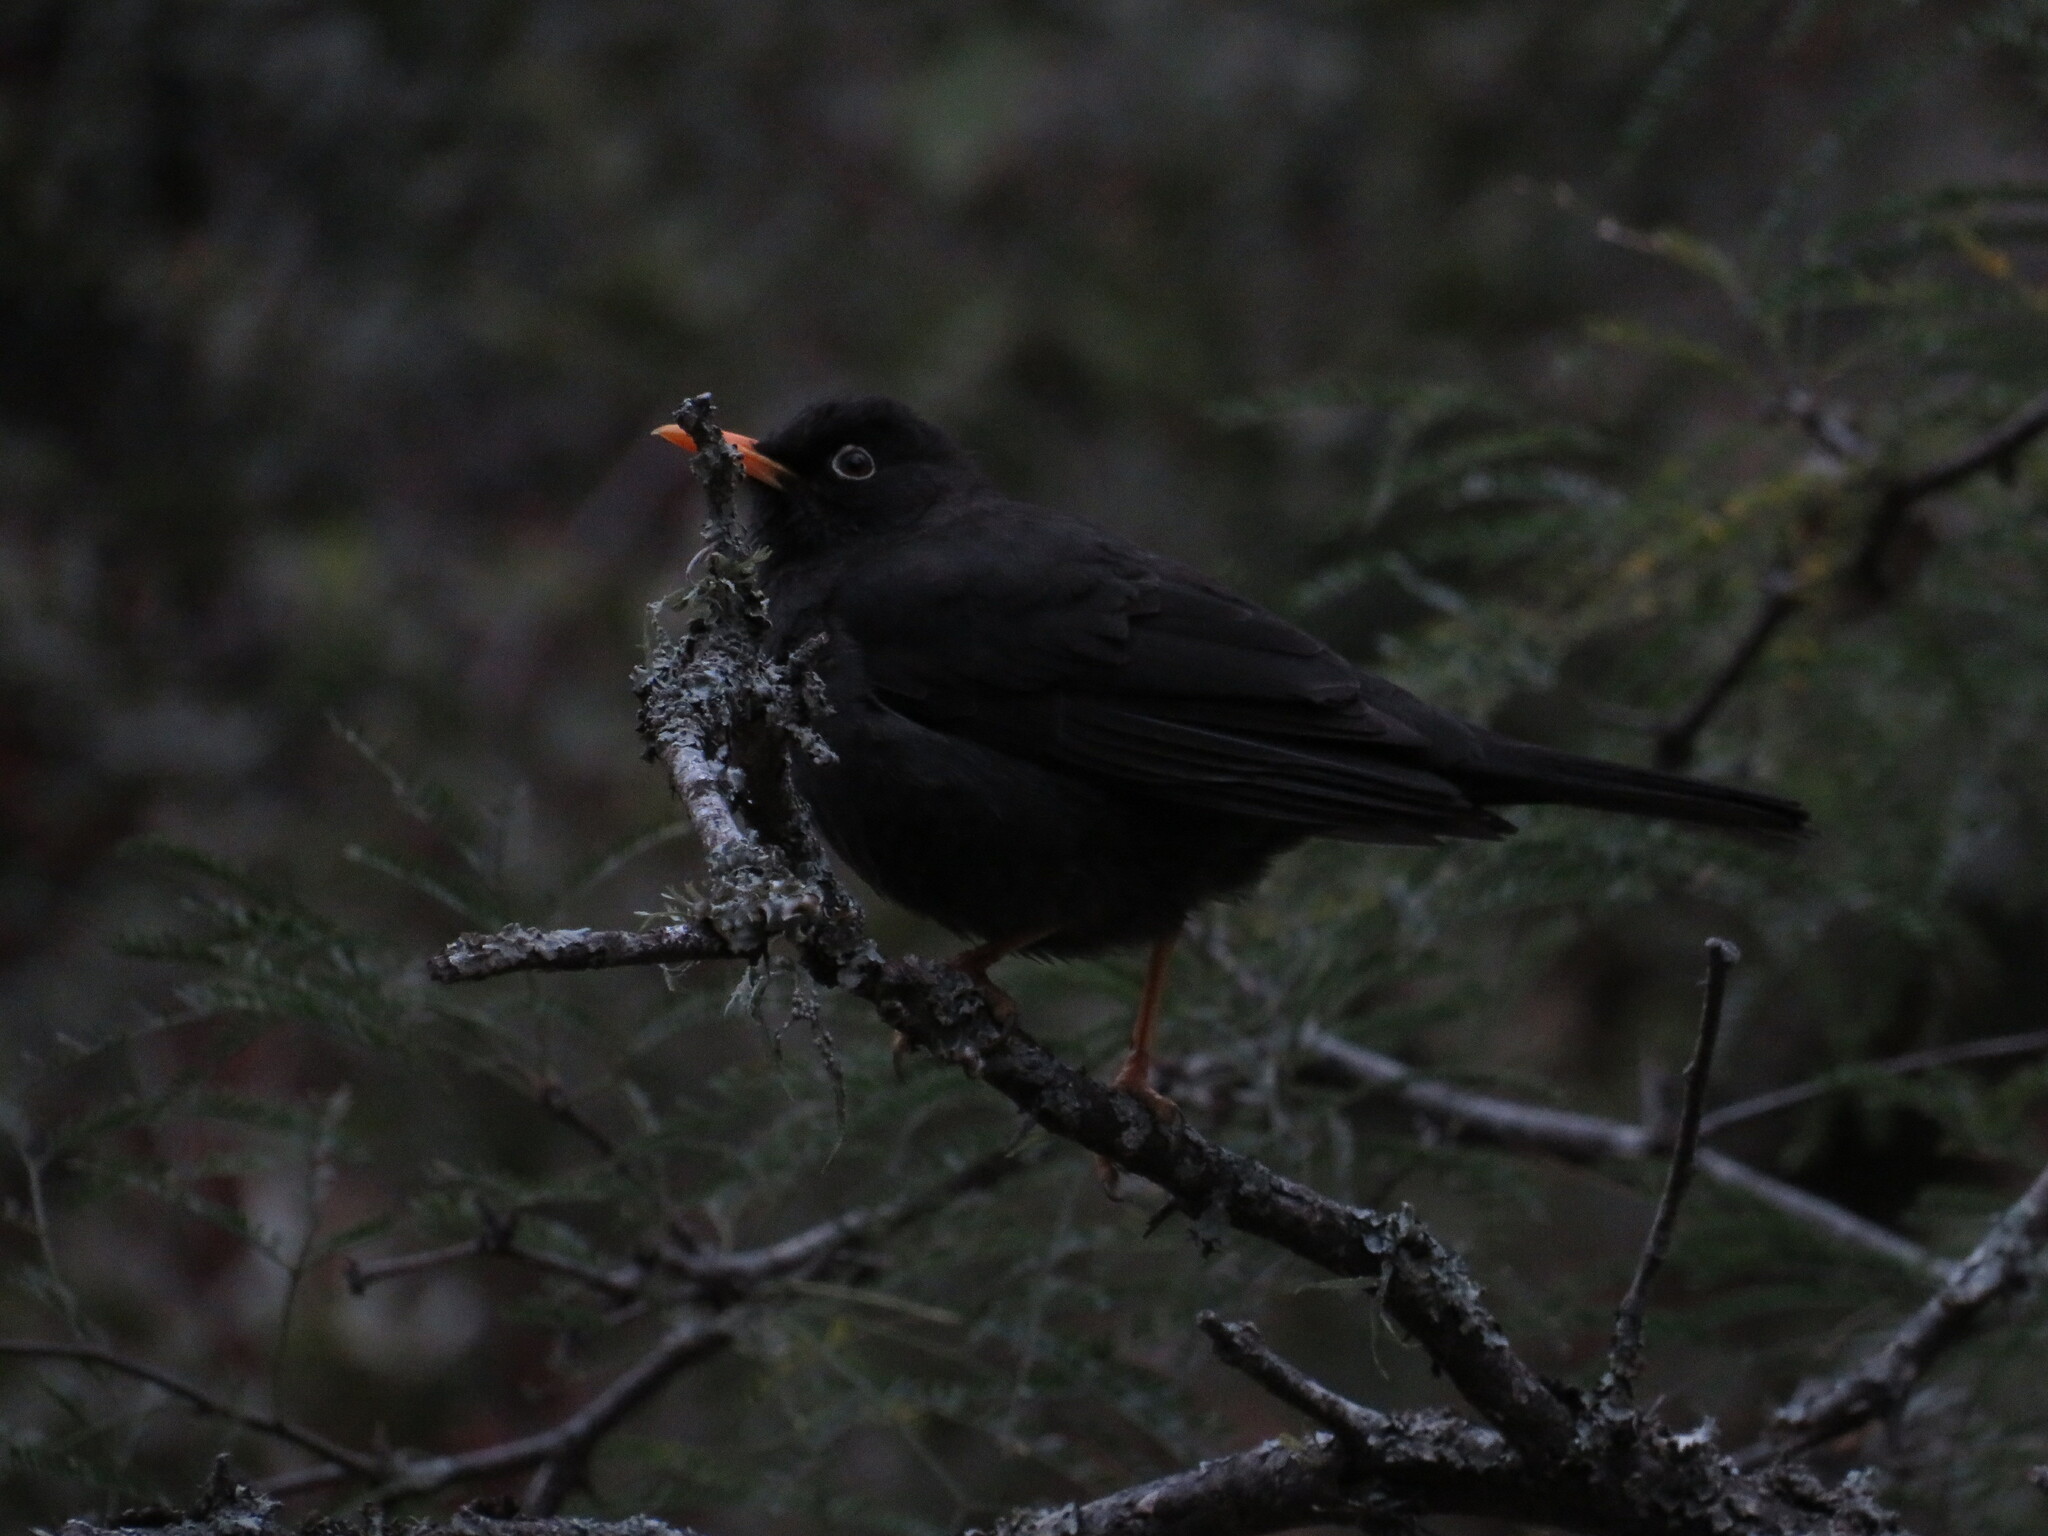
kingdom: Animalia
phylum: Chordata
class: Aves
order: Passeriformes
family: Turdidae
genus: Turdus
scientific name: Turdus chiguanco
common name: Chiguanco thrush
